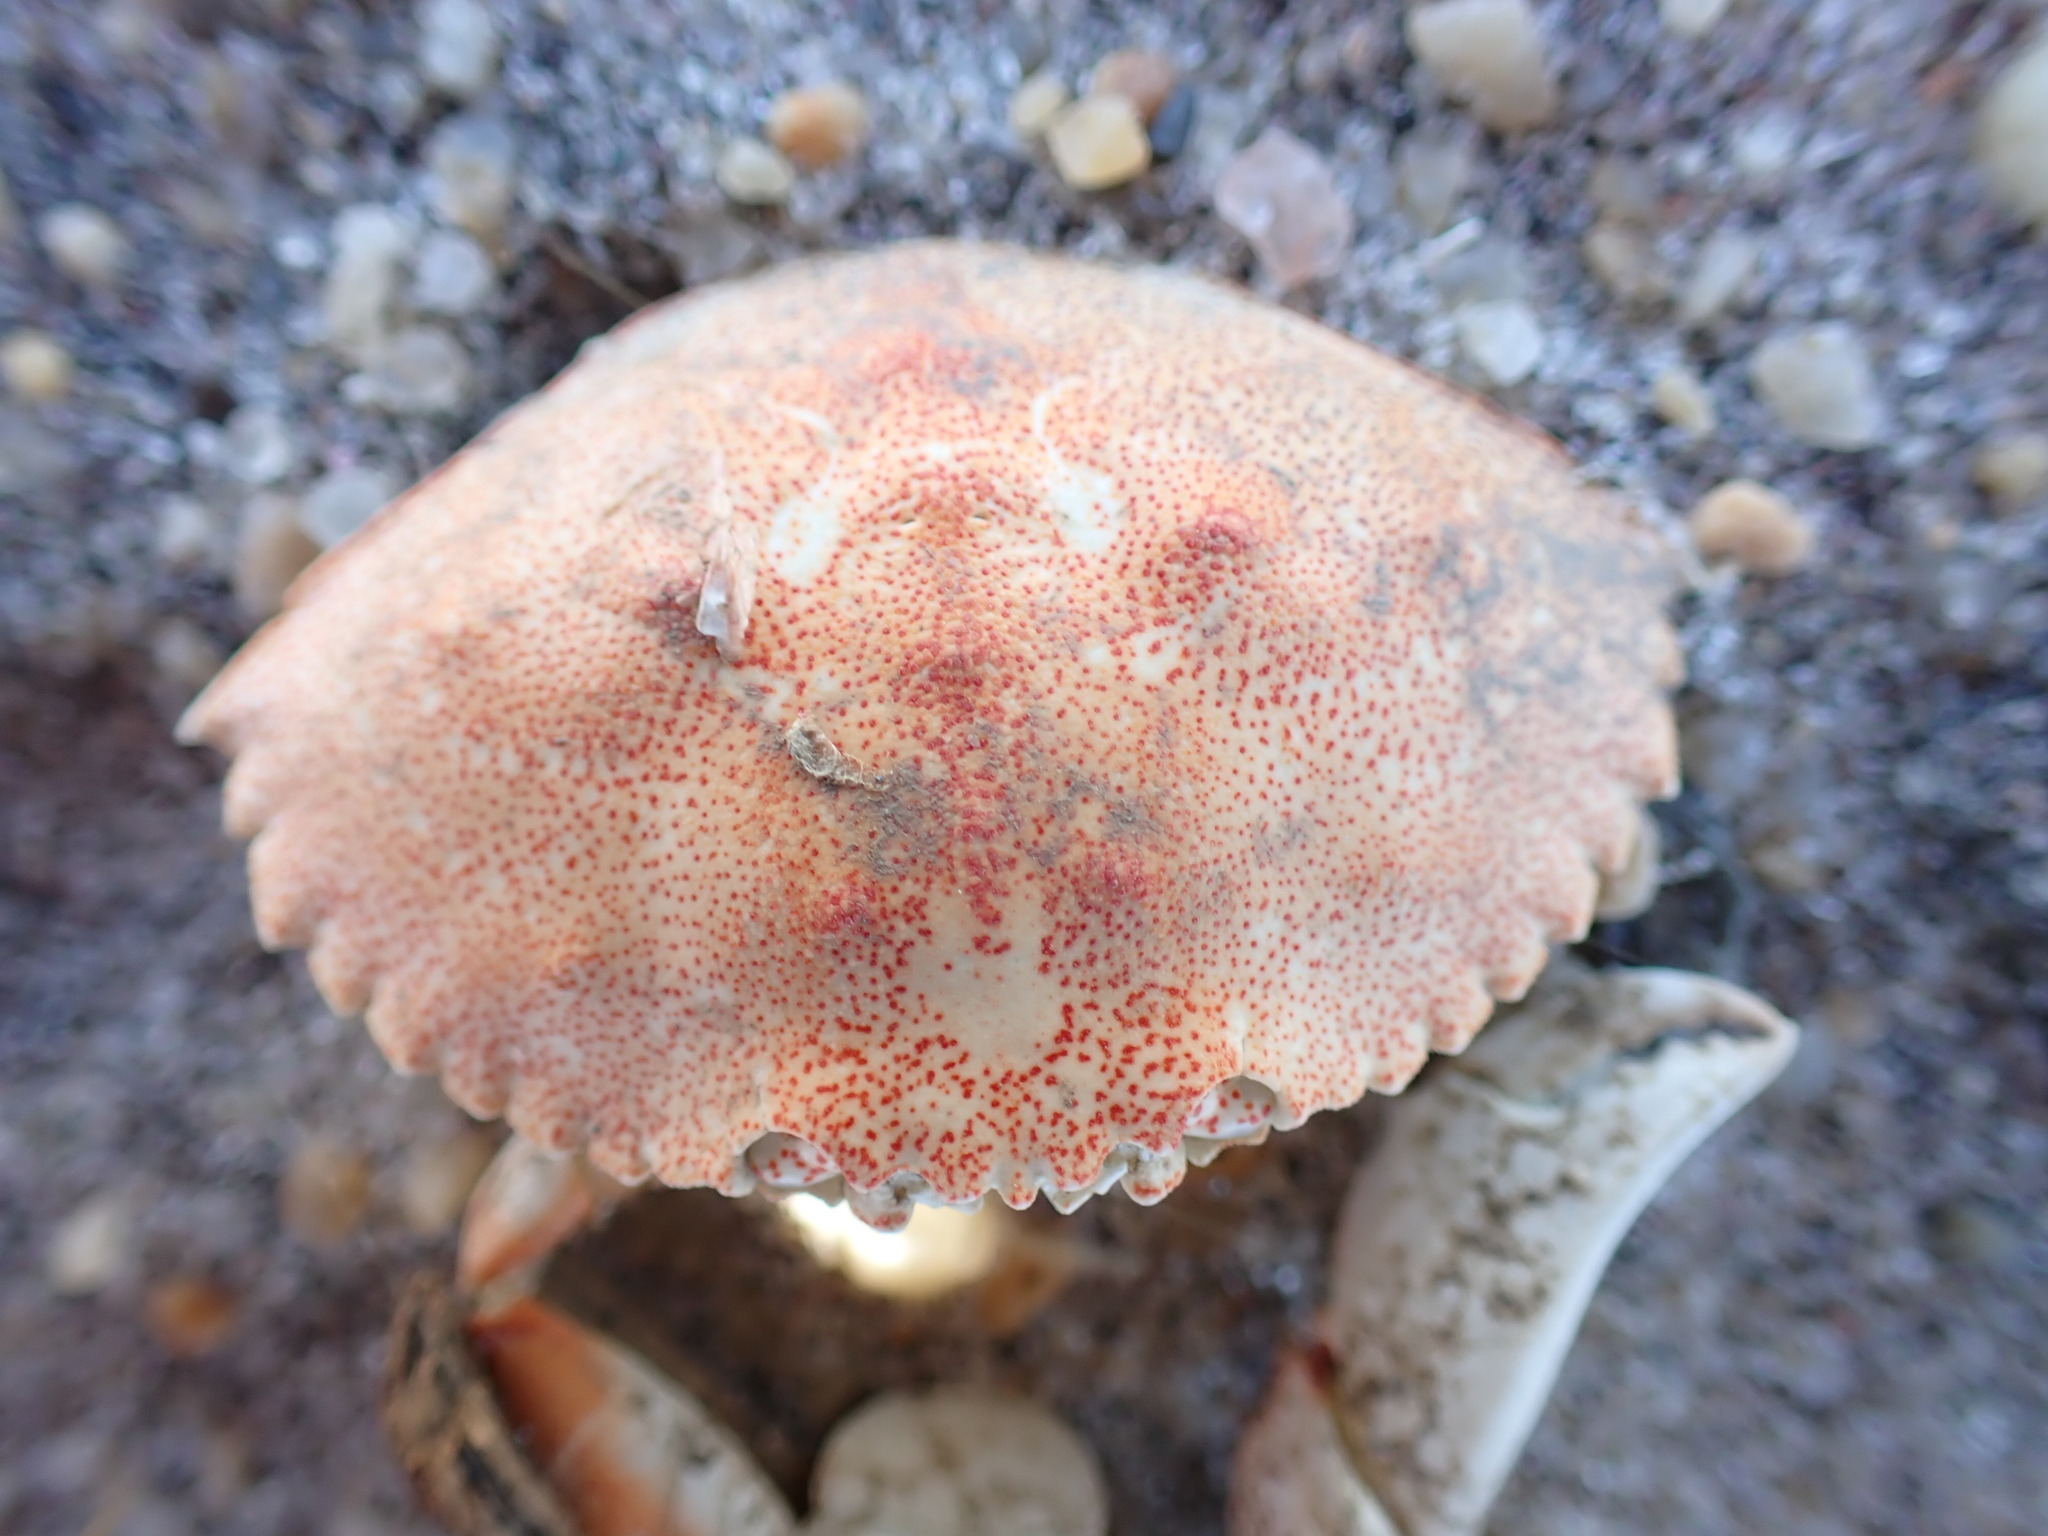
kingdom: Animalia
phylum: Arthropoda
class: Malacostraca
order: Decapoda
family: Cancridae
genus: Cancer
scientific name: Cancer irroratus
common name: Atlantic rock crab
